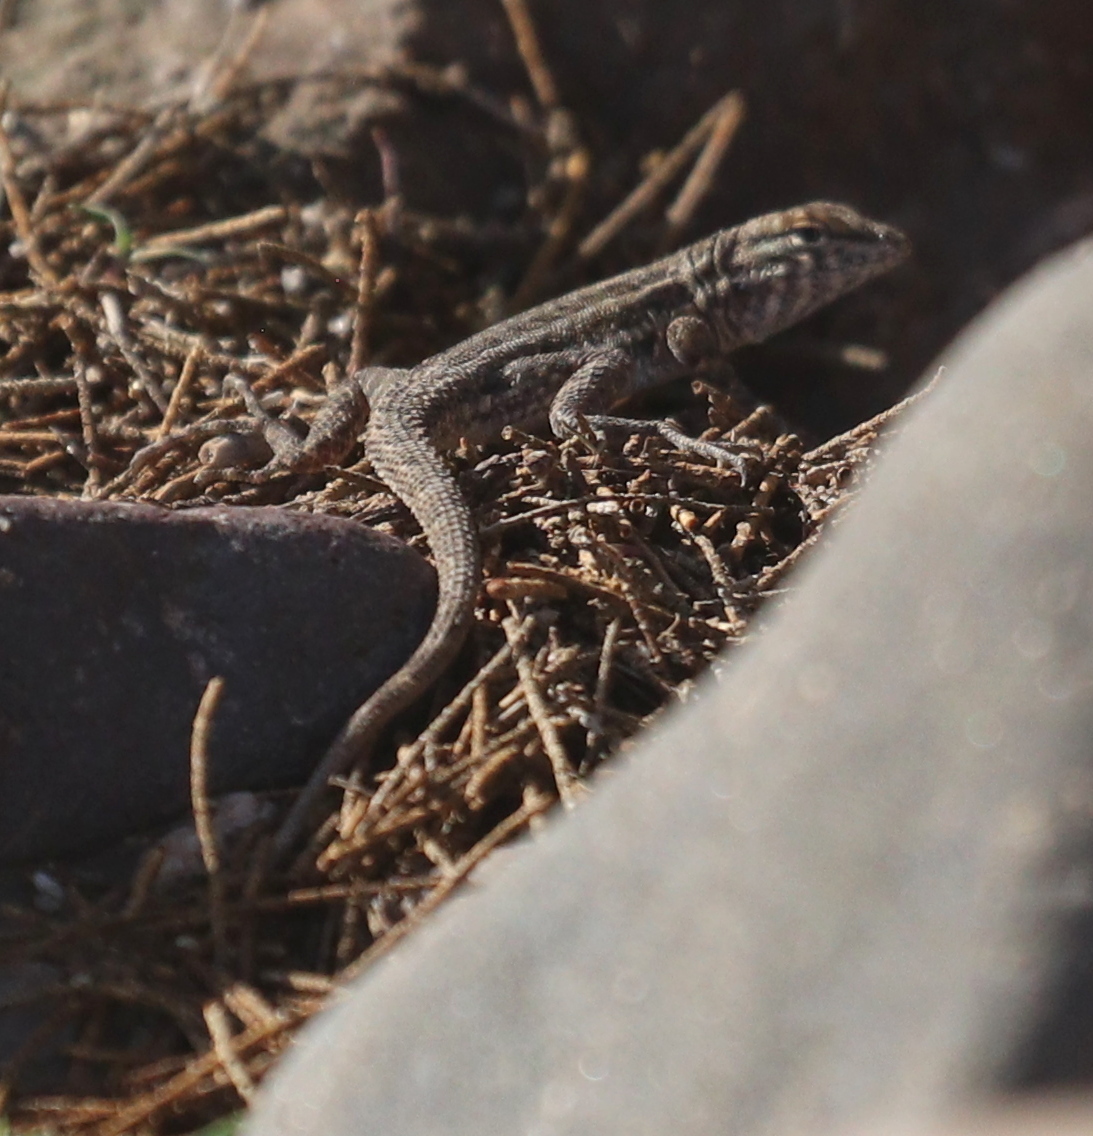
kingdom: Animalia
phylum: Chordata
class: Squamata
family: Phrynosomatidae
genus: Uta
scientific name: Uta stansburiana
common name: Side-blotched lizard
